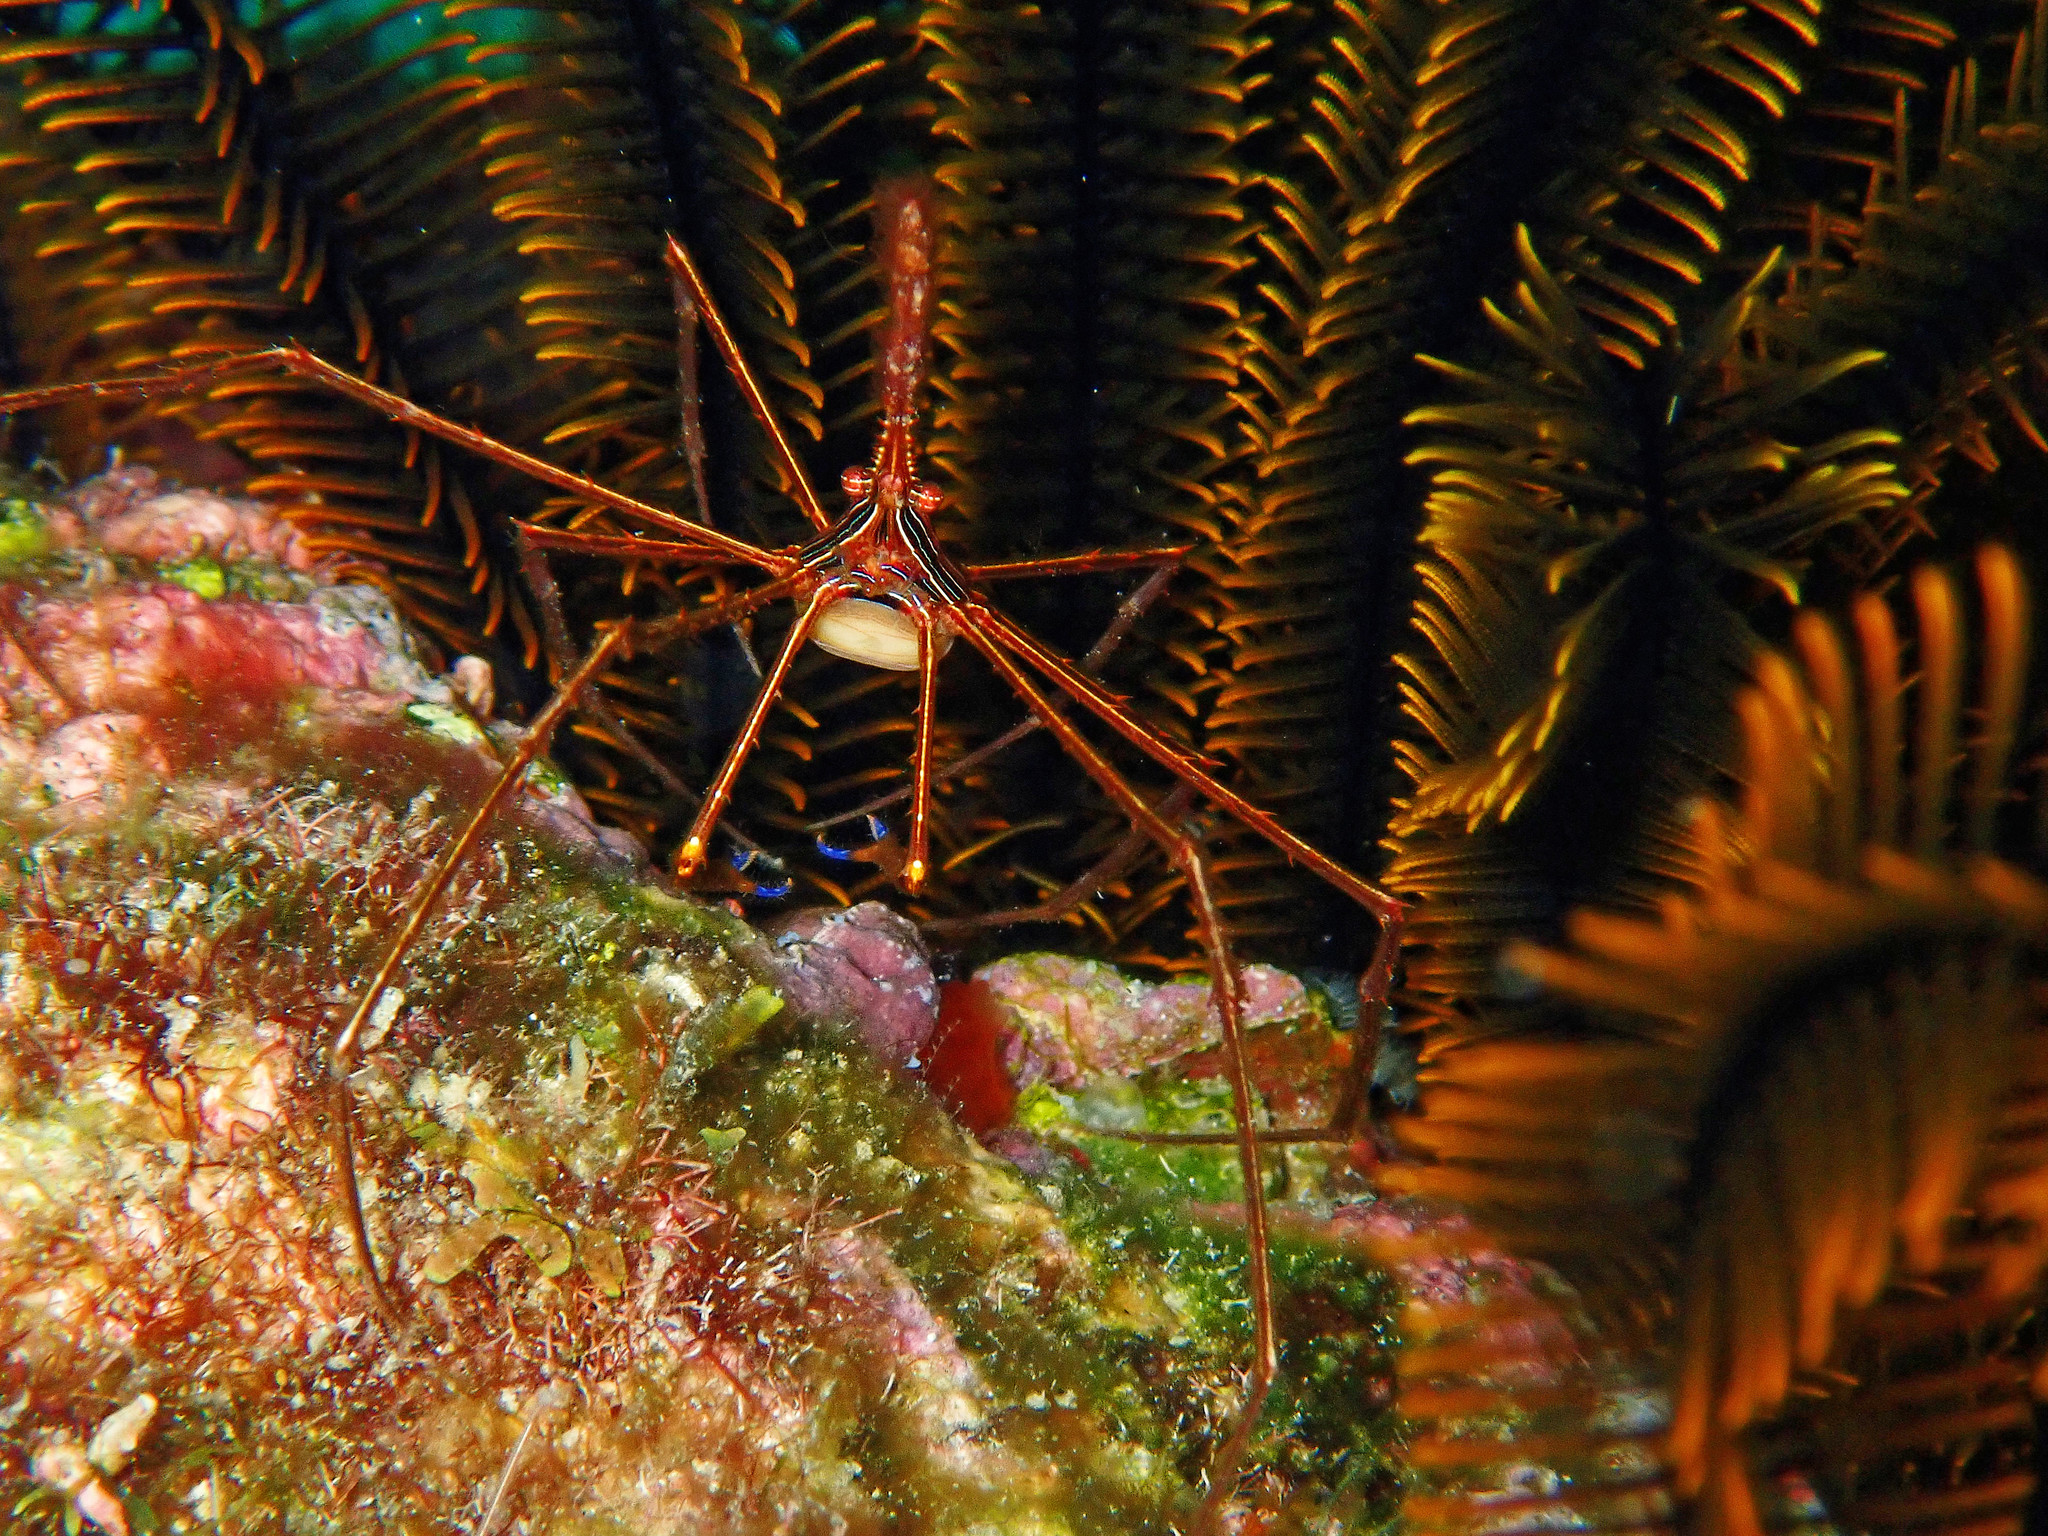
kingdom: Animalia
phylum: Arthropoda
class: Malacostraca
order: Decapoda
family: Inachoididae
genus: Stenorhynchus
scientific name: Stenorhynchus seticornis
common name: Arrow crab
